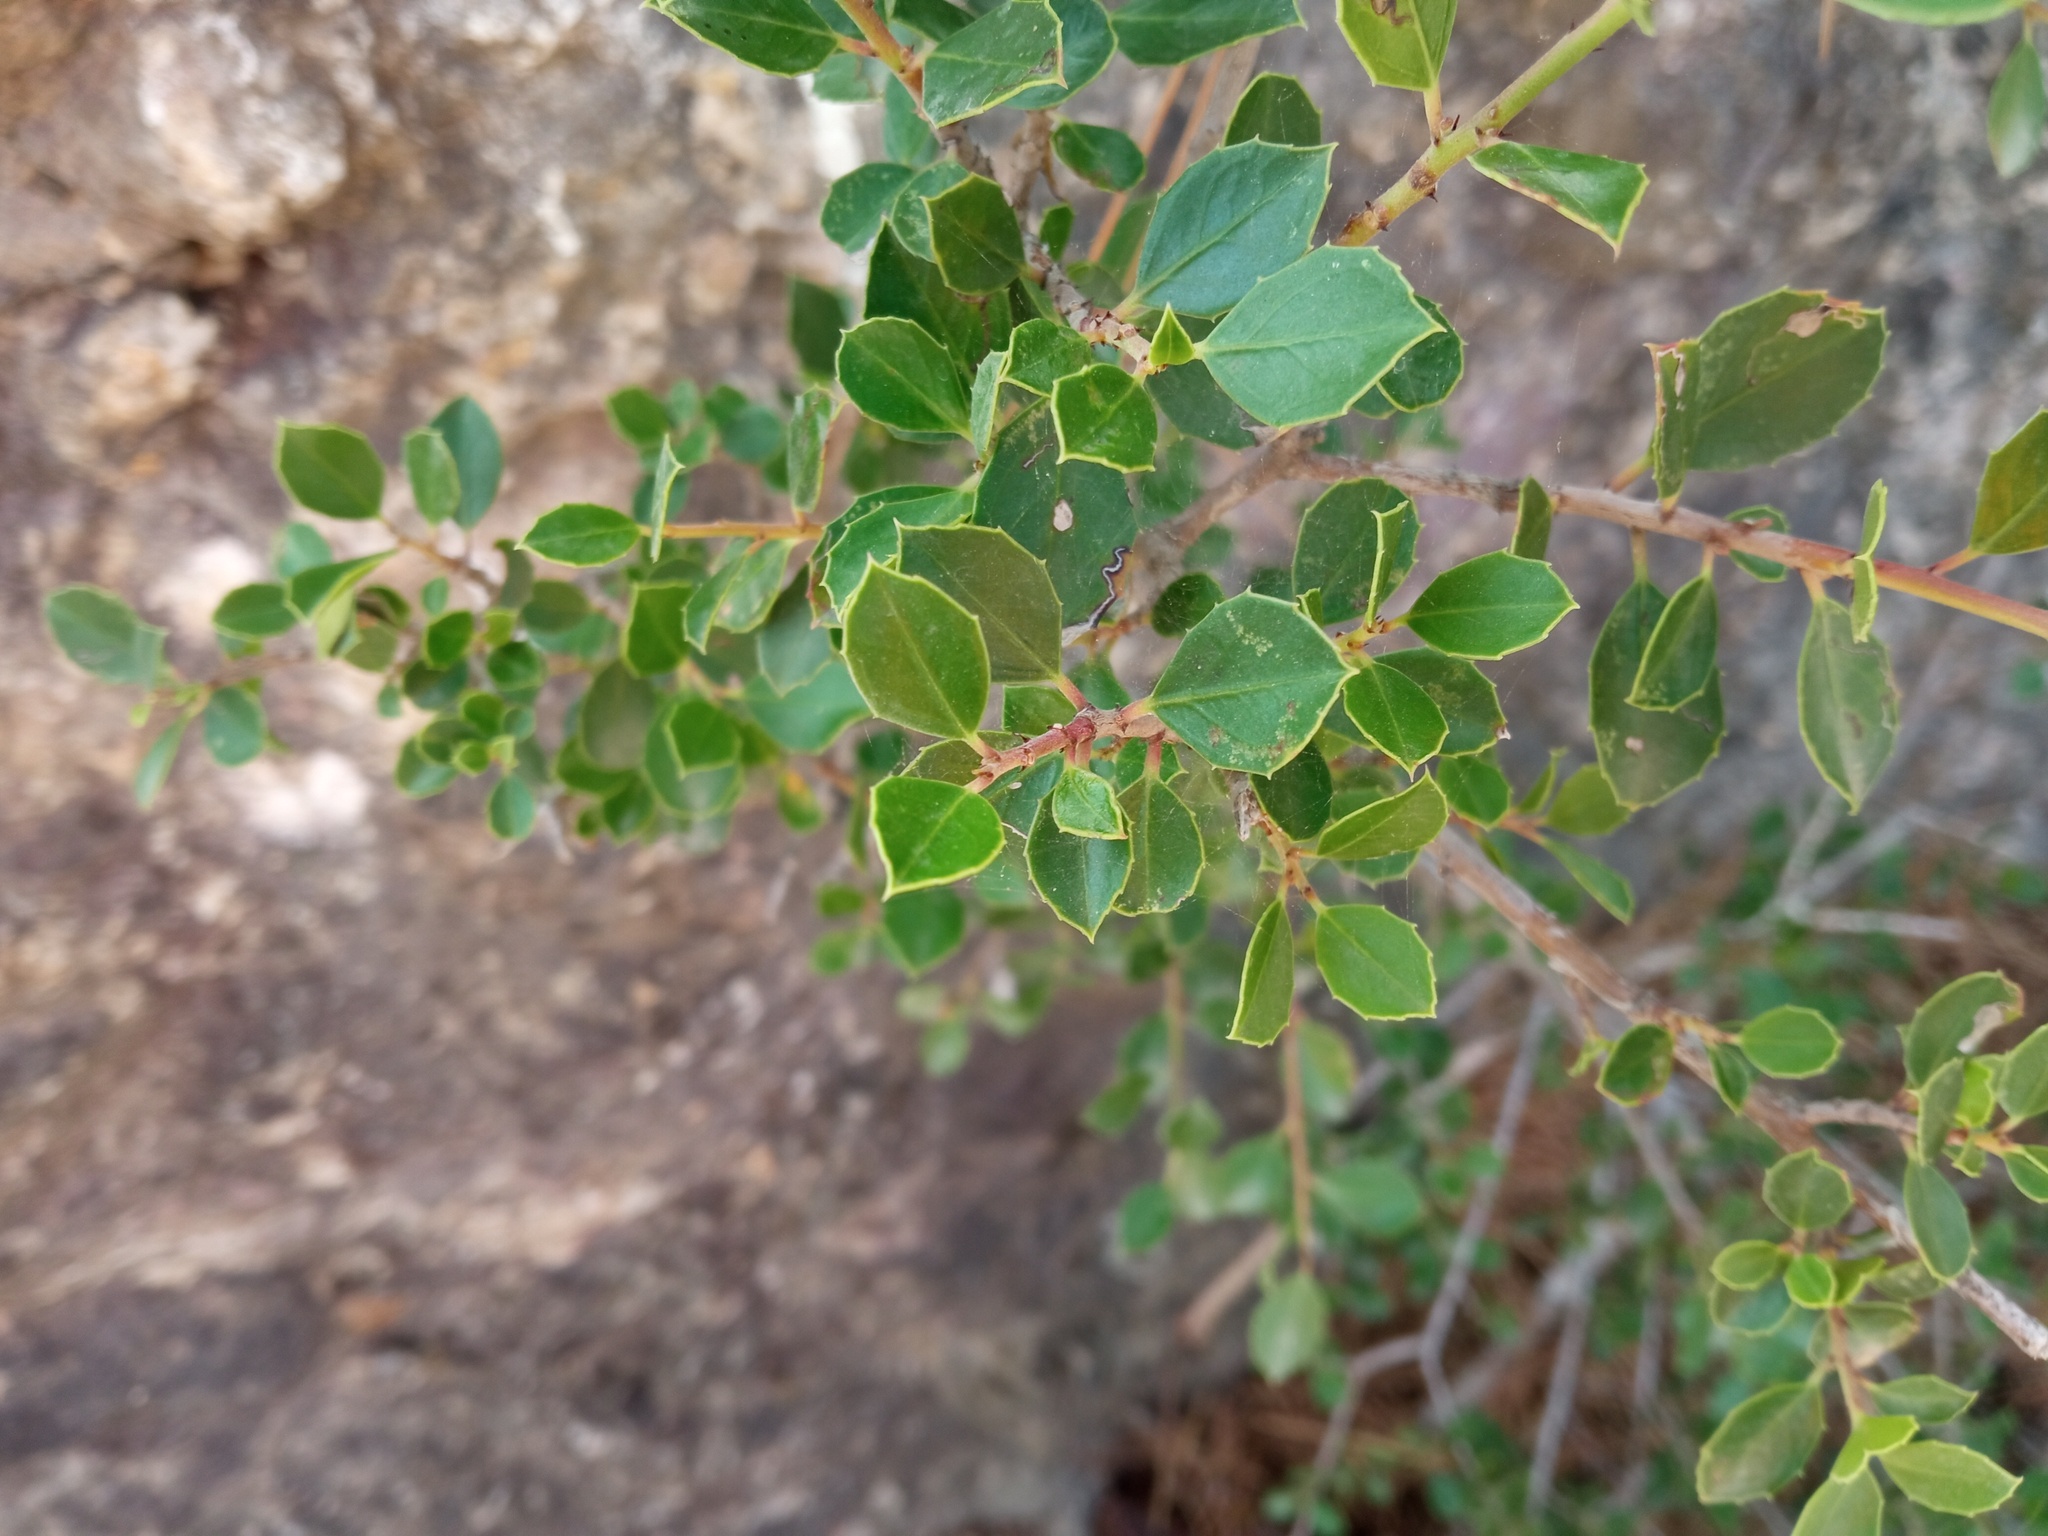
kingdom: Plantae
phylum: Tracheophyta
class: Magnoliopsida
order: Rosales
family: Rhamnaceae
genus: Rhamnus
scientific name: Rhamnus alaternus
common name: Mediterranean buckthorn
